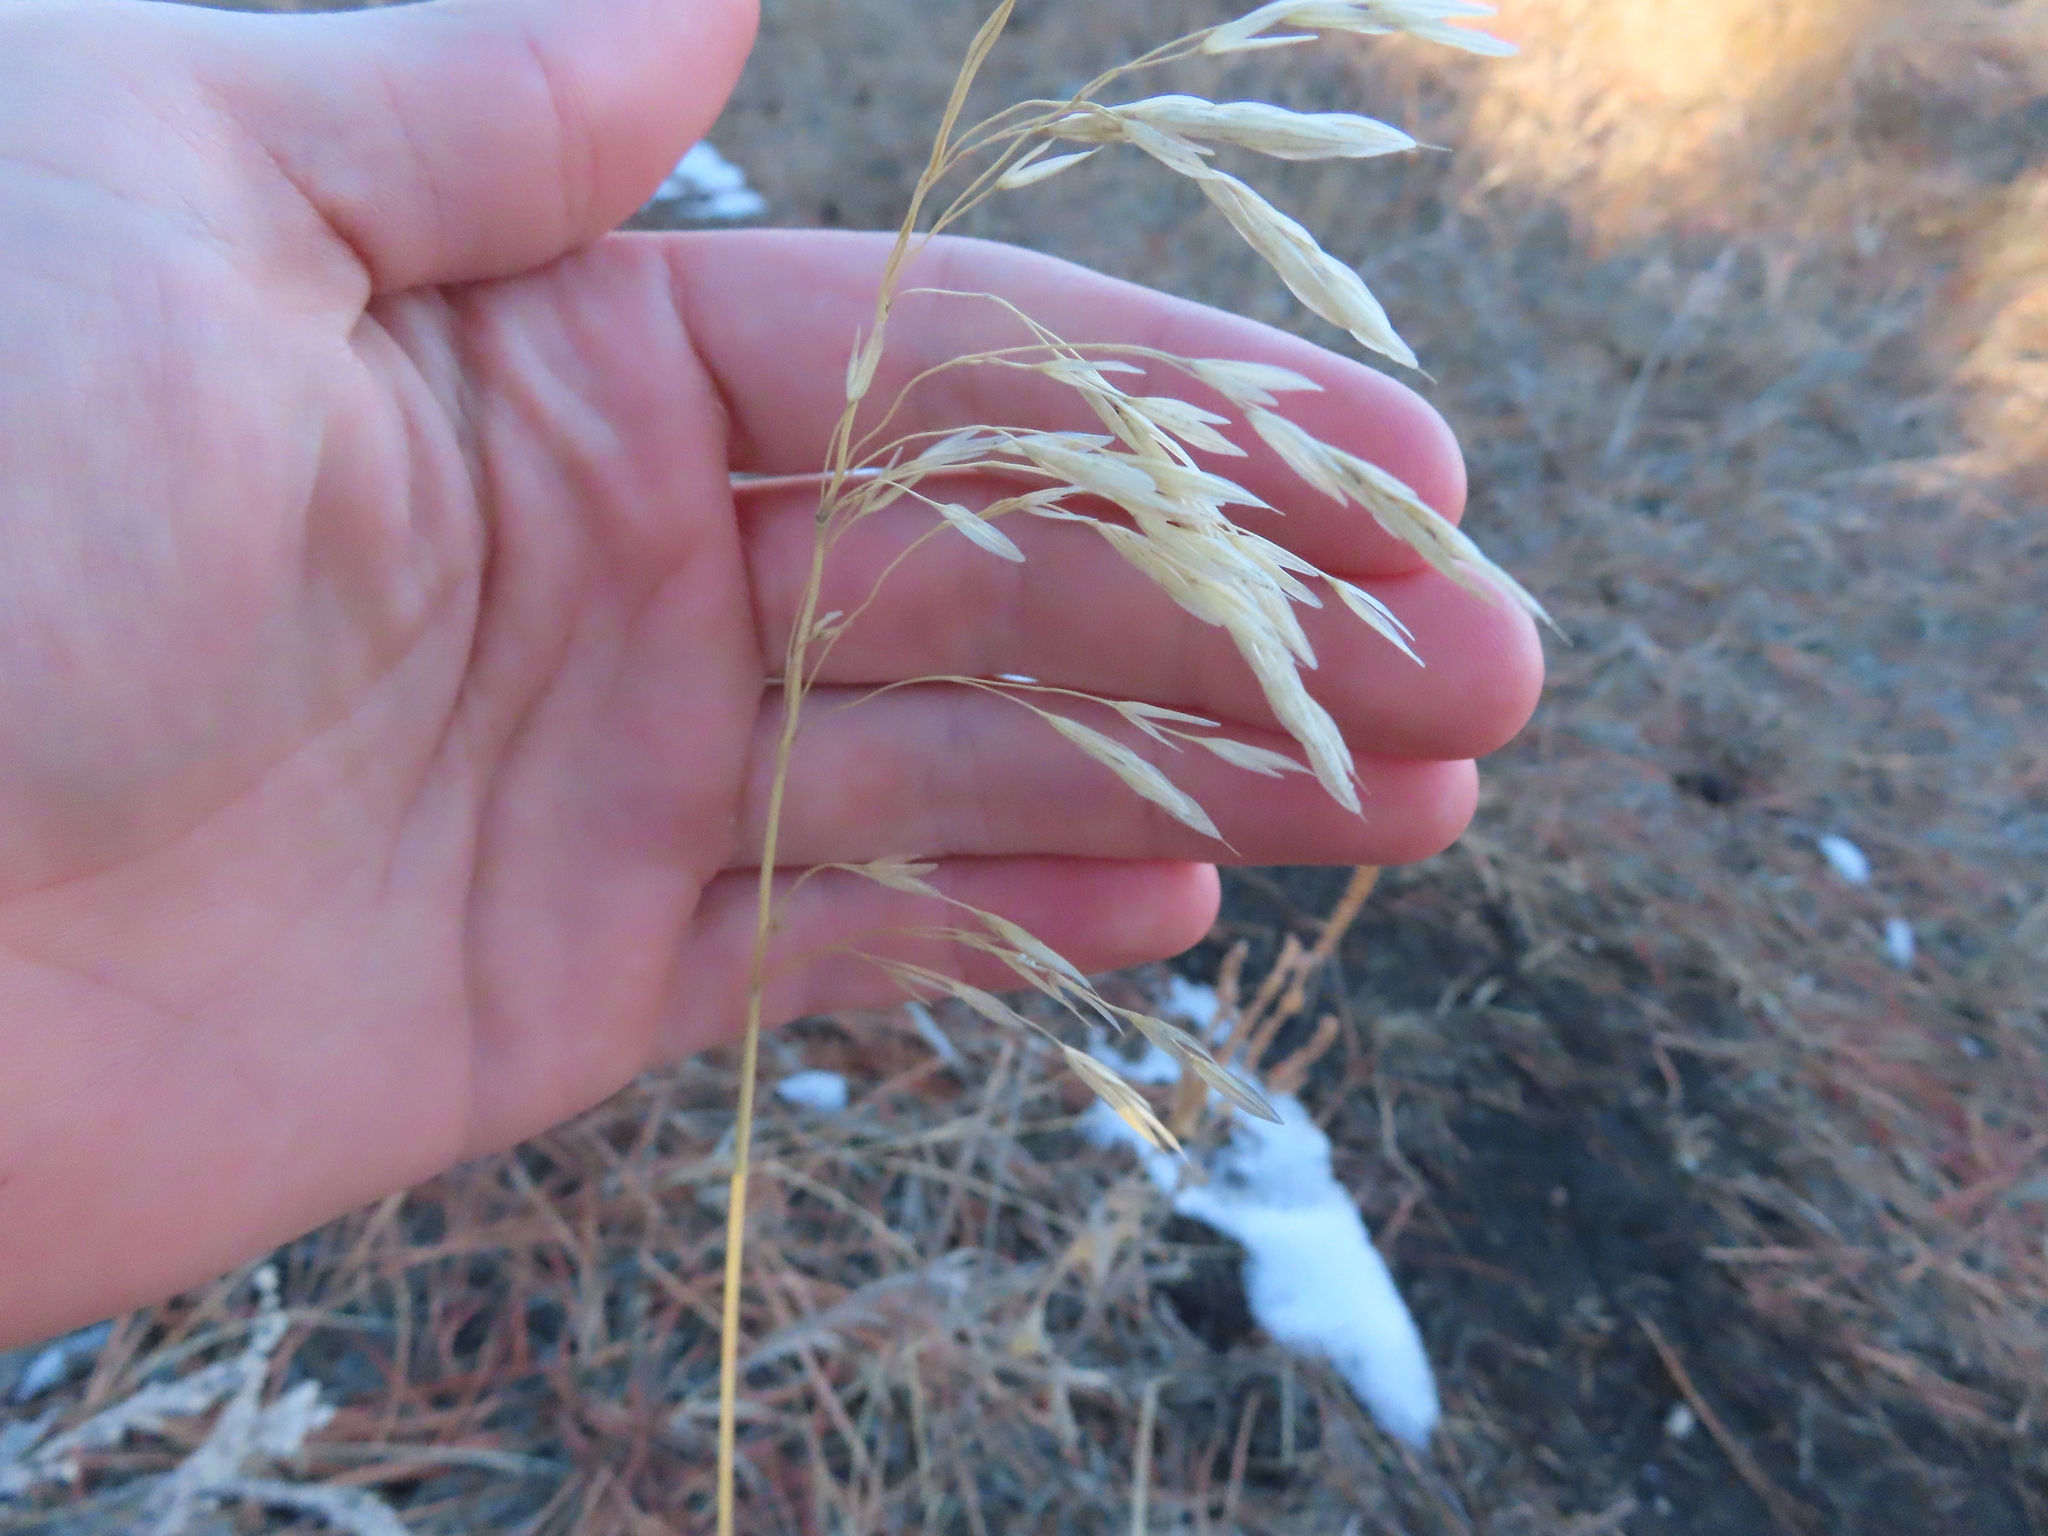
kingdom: Plantae
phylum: Tracheophyta
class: Liliopsida
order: Poales
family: Poaceae
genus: Bromus
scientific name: Bromus inermis
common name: Smooth brome
